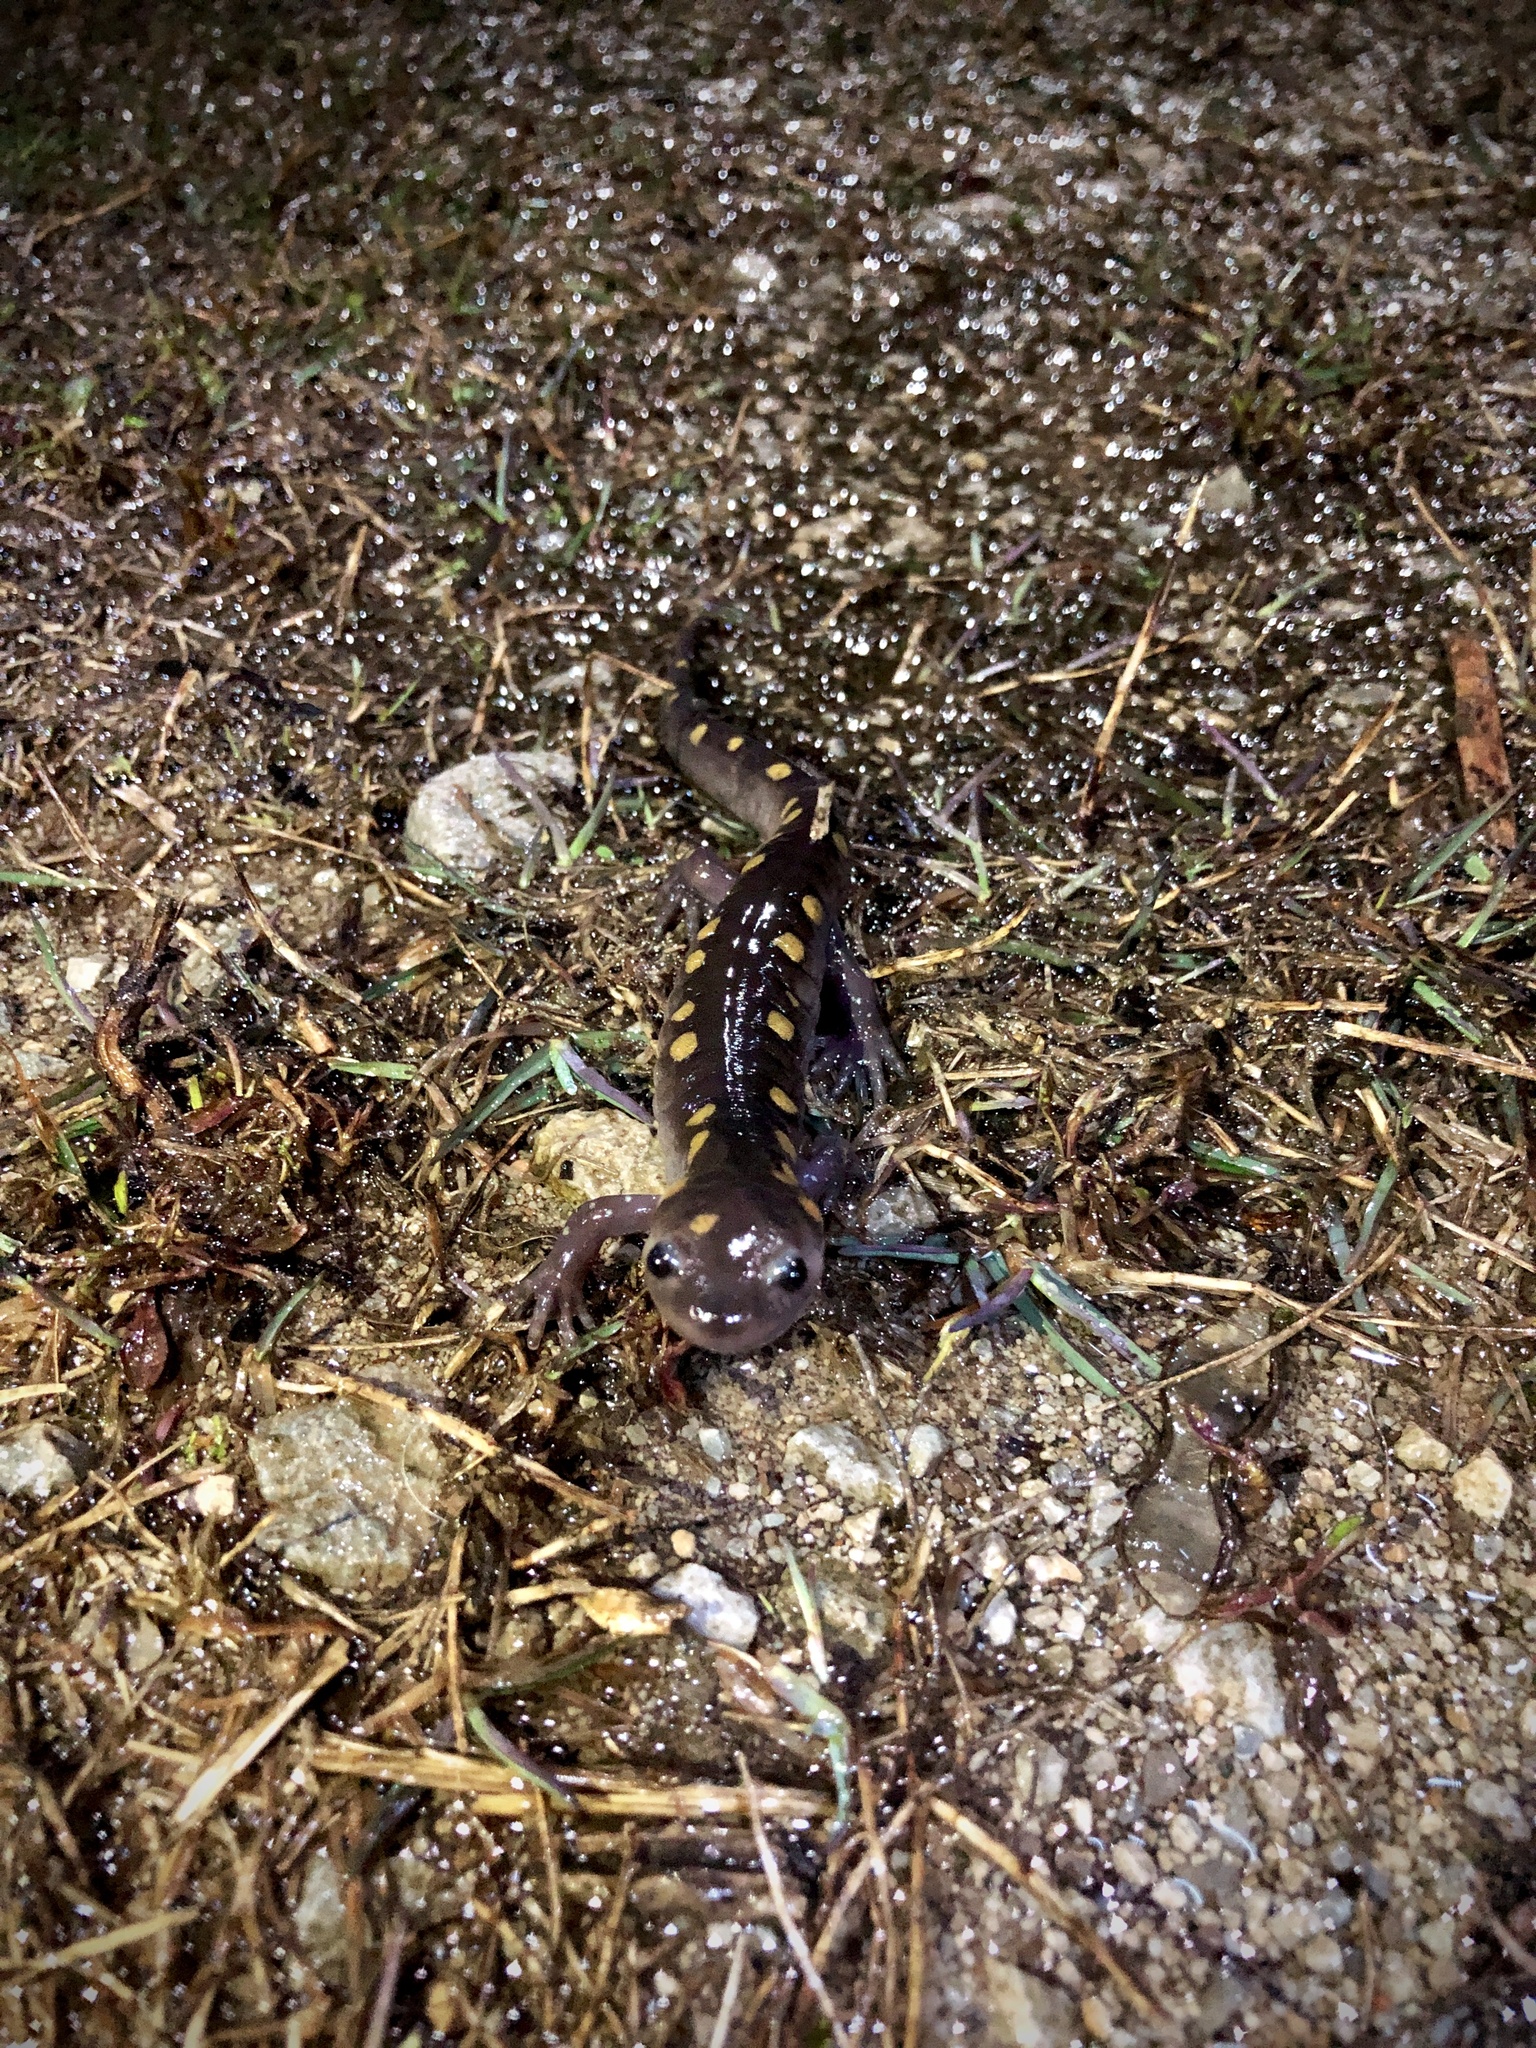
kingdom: Animalia
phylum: Chordata
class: Amphibia
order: Caudata
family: Ambystomatidae
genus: Ambystoma
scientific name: Ambystoma maculatum
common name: Spotted salamander
